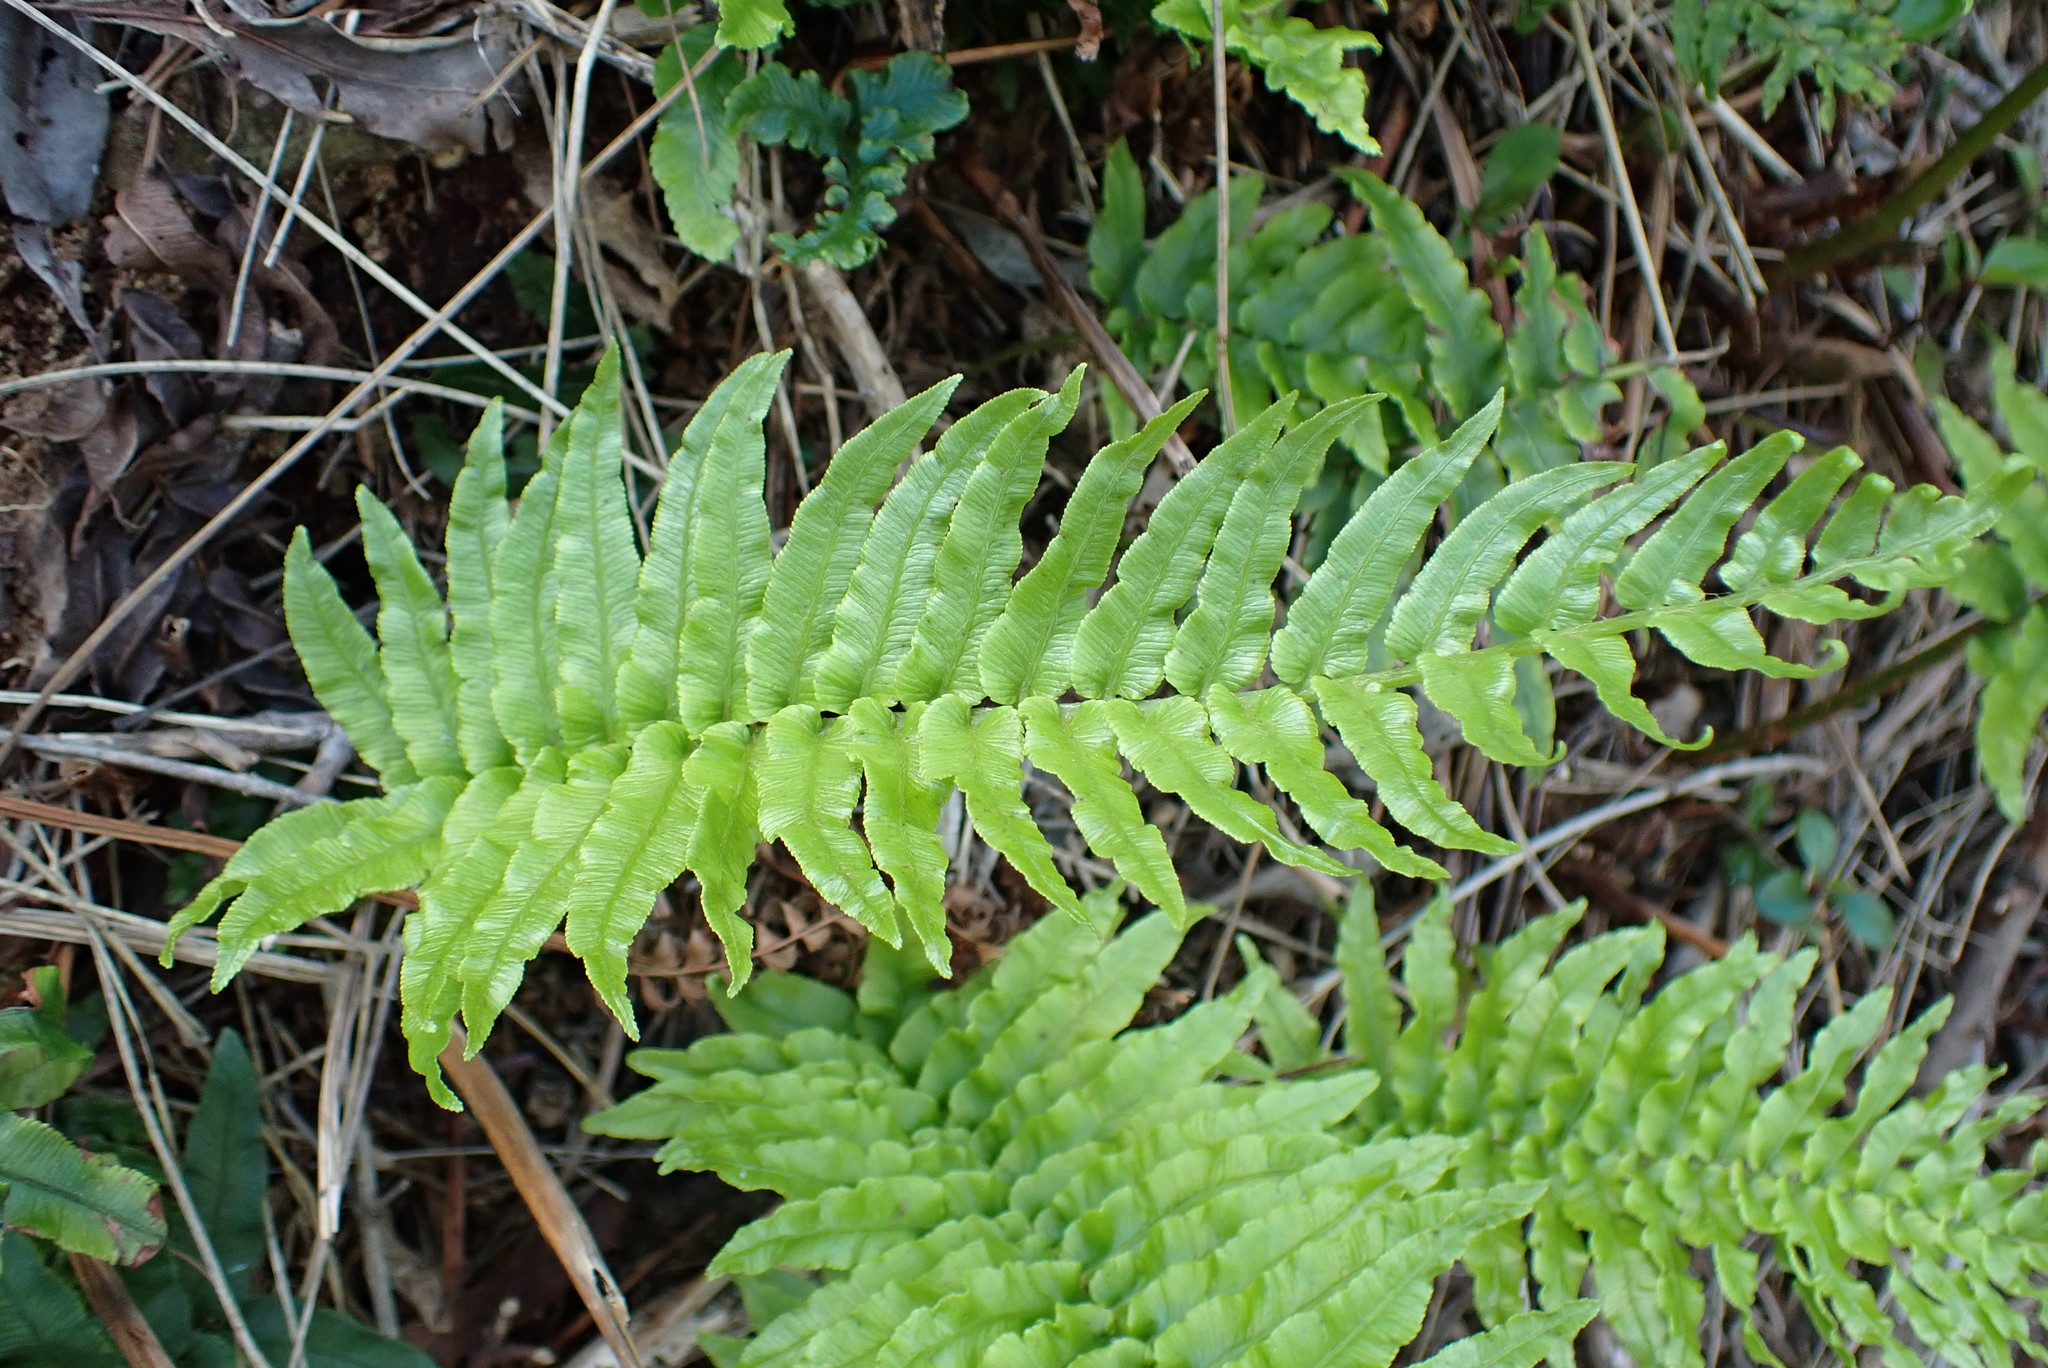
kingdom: Plantae
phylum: Tracheophyta
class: Polypodiopsida
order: Polypodiales
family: Blechnaceae
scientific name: Blechnaceae
